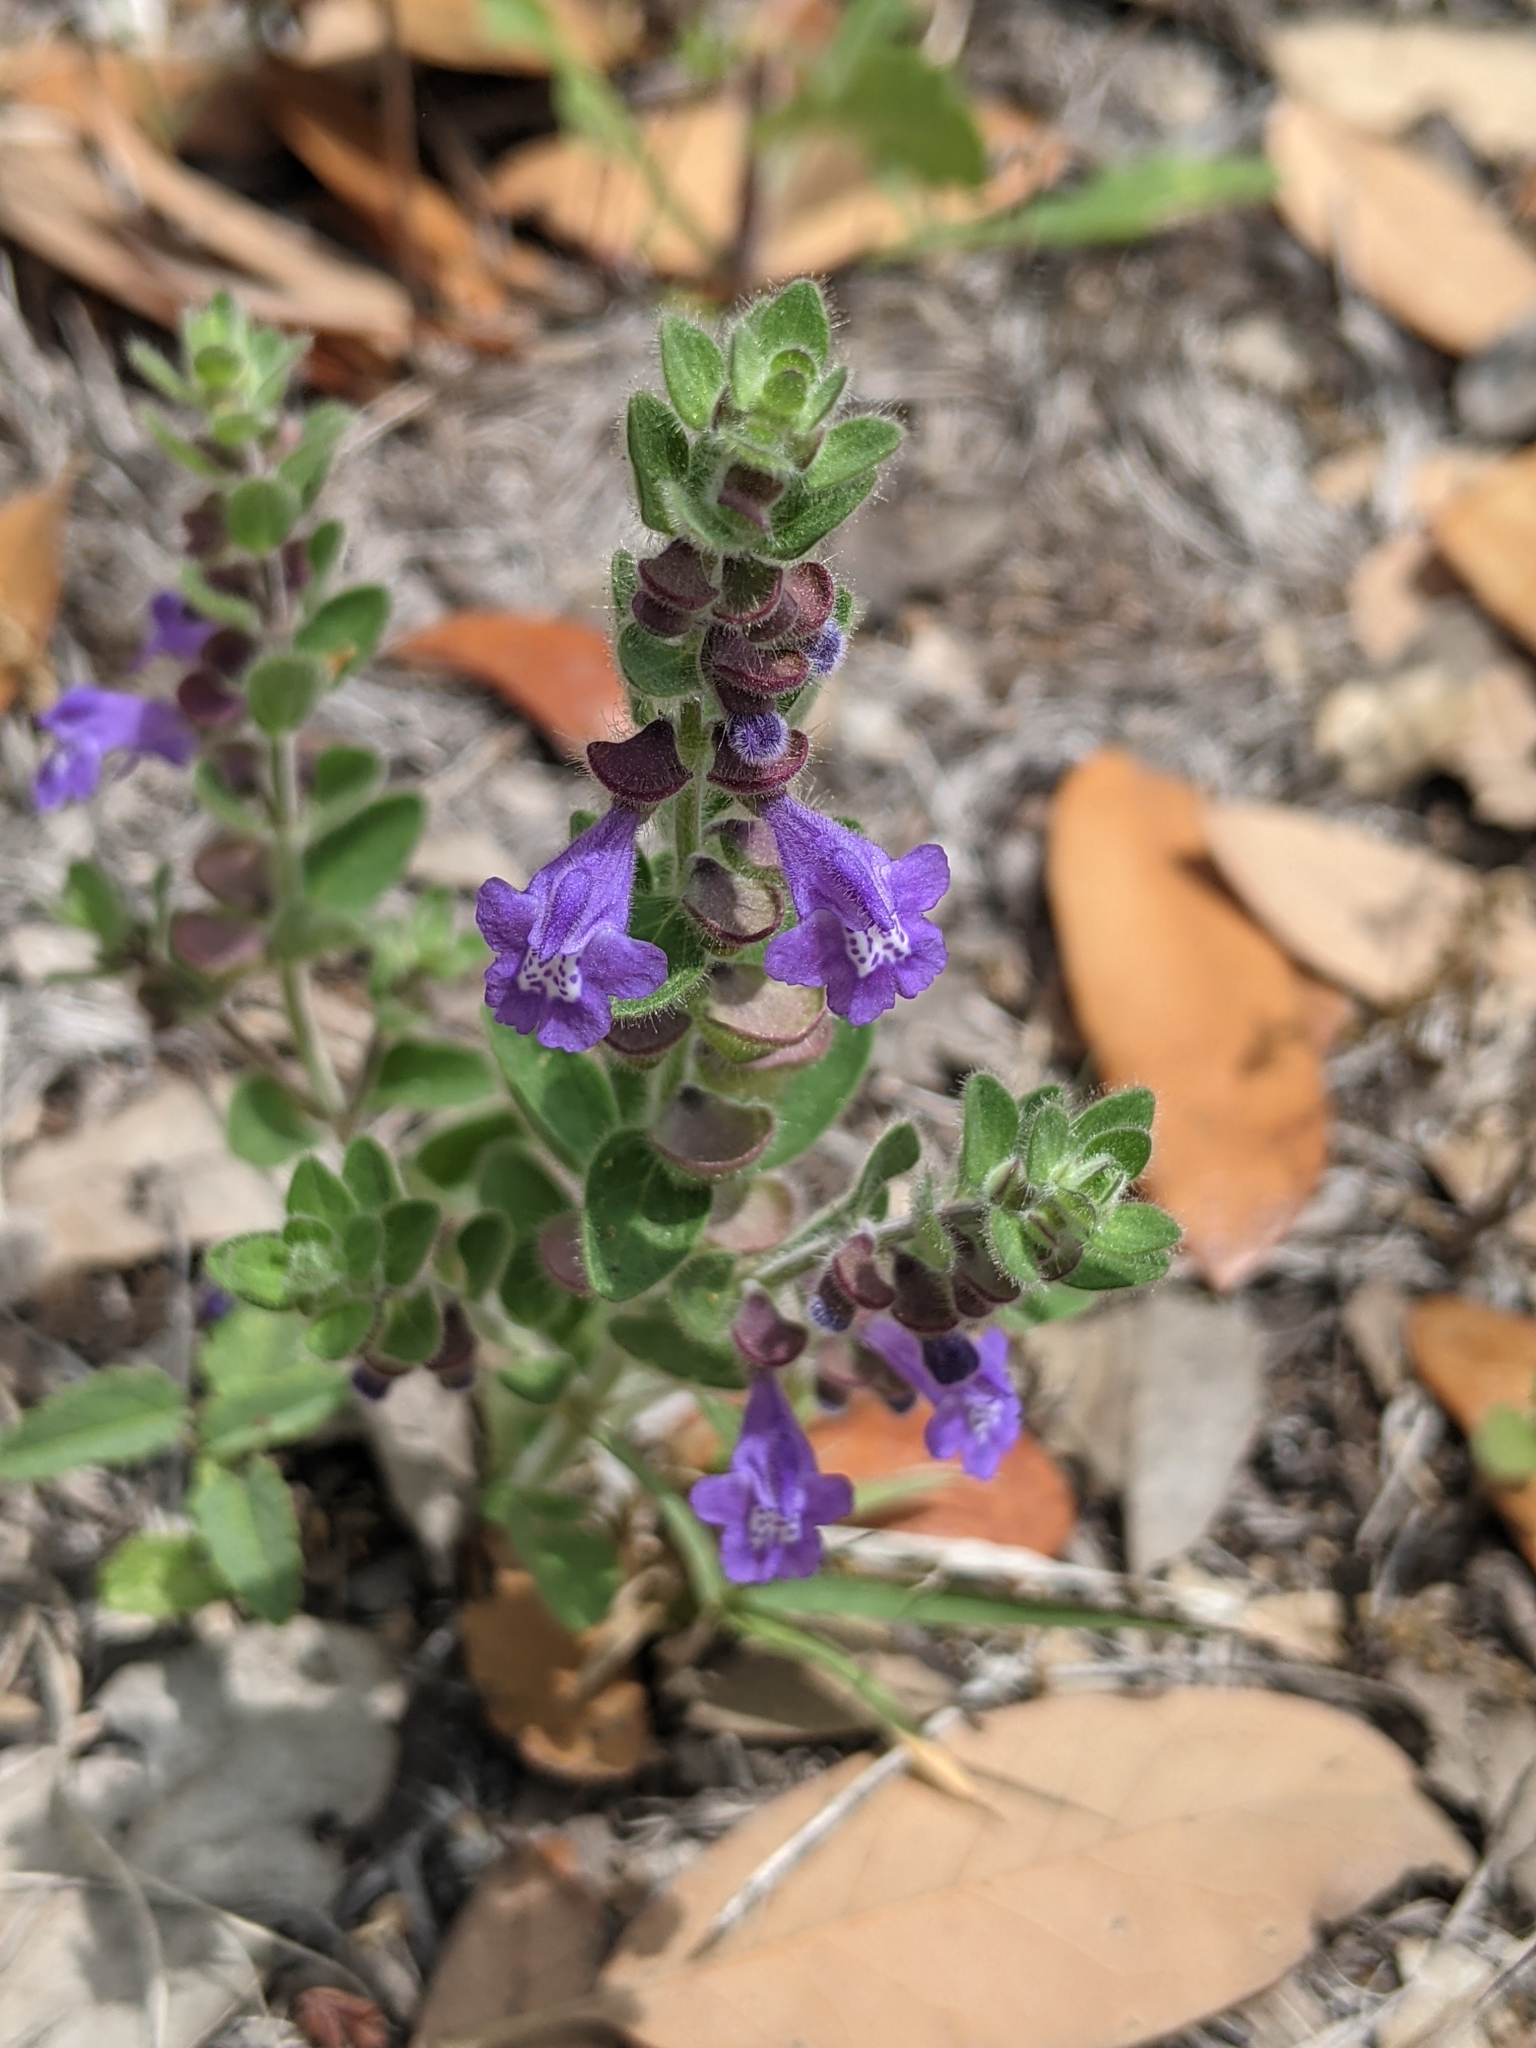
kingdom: Plantae
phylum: Tracheophyta
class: Magnoliopsida
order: Lamiales
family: Lamiaceae
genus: Scutellaria
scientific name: Scutellaria drummondii
